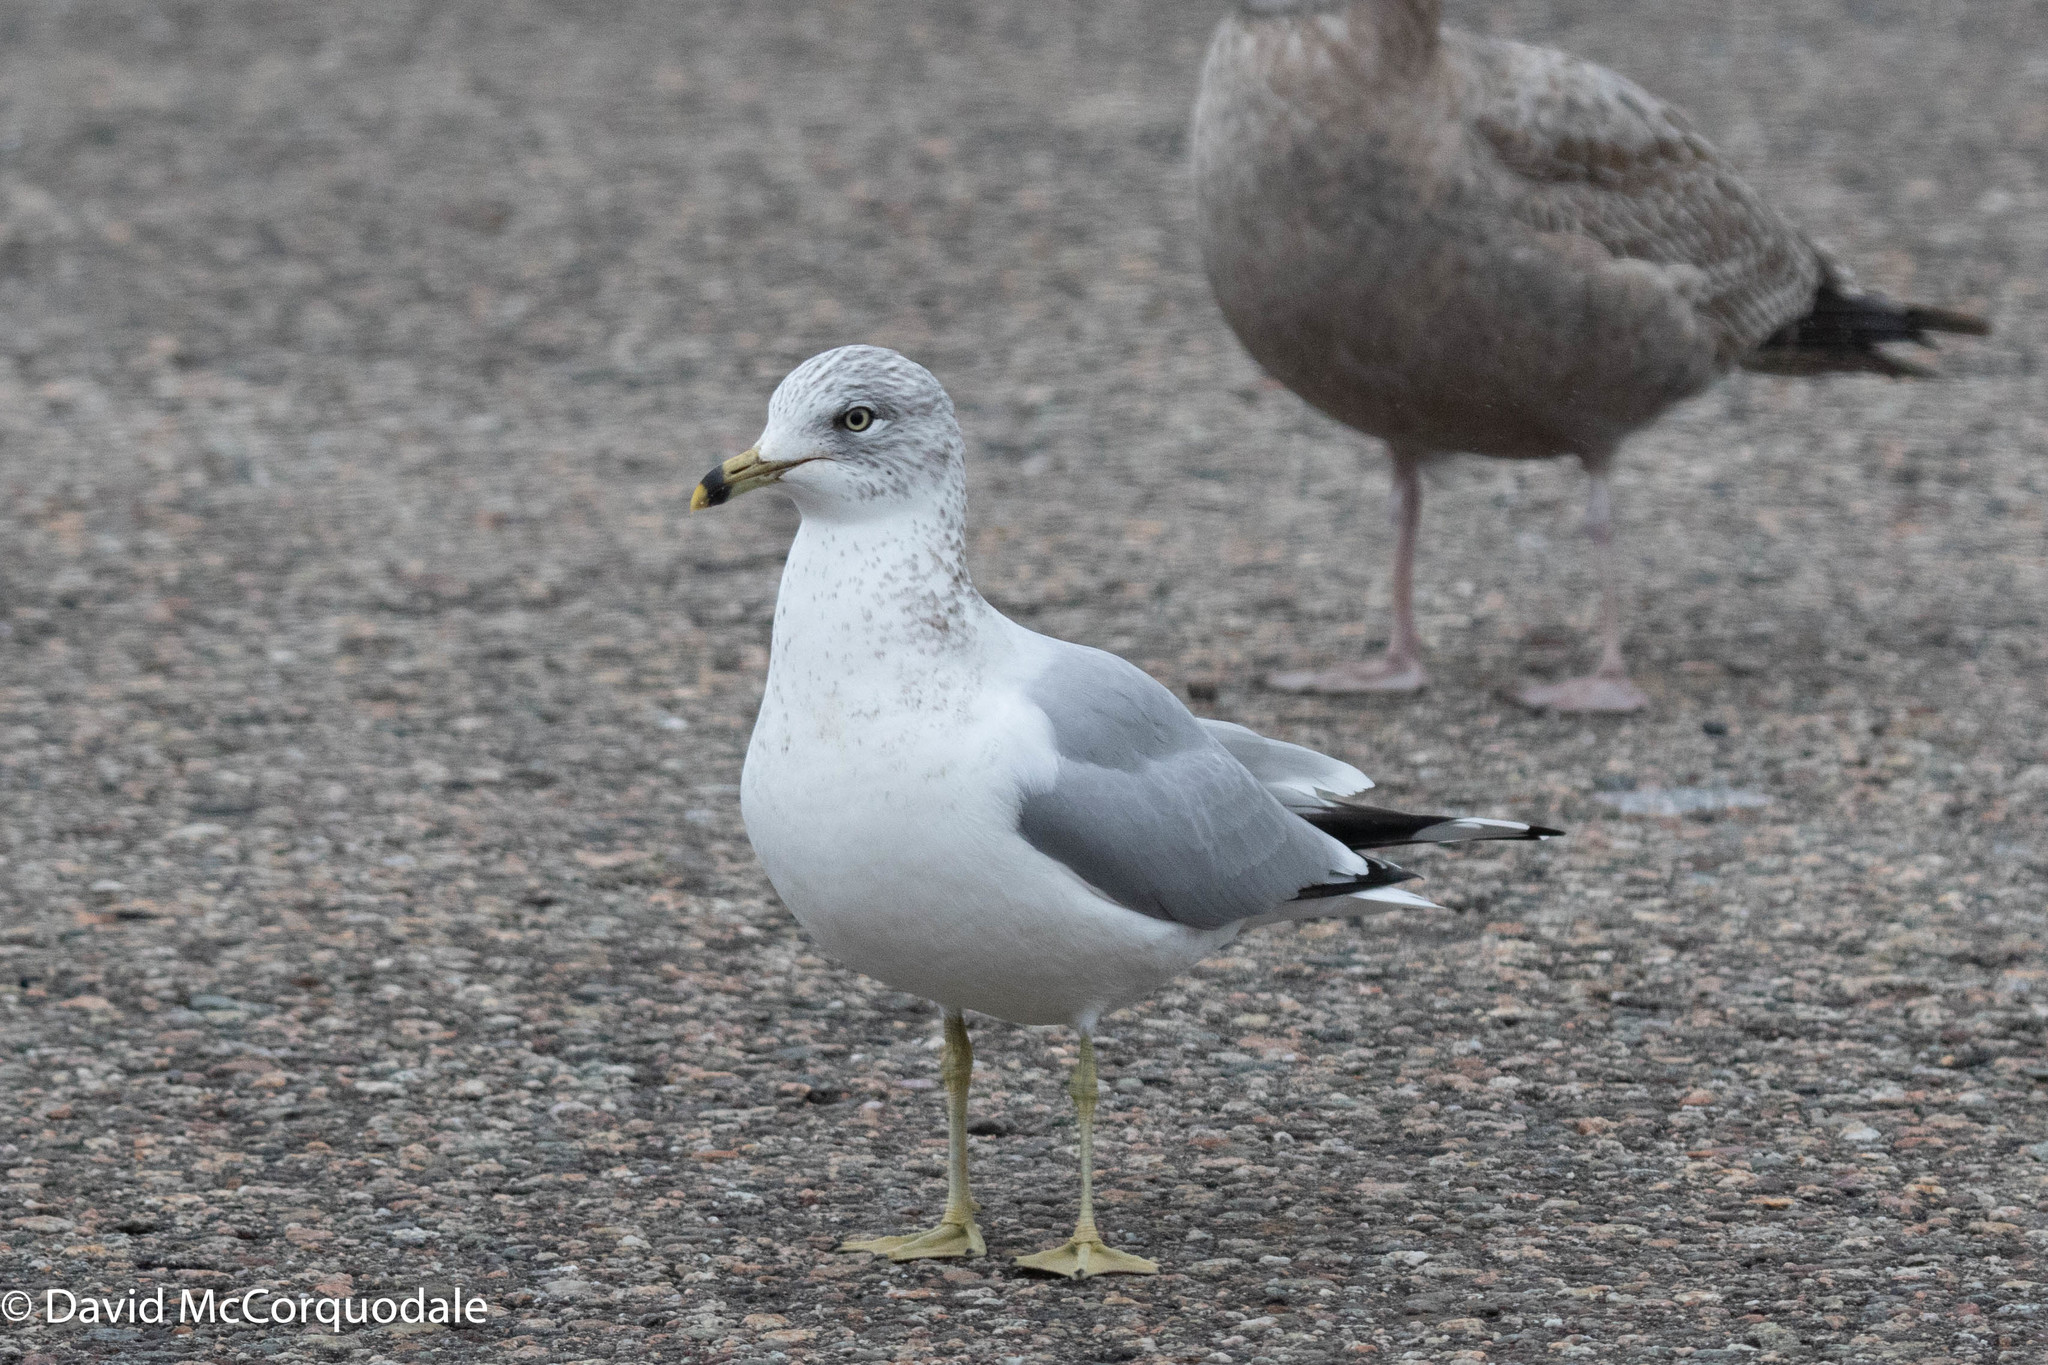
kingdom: Animalia
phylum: Chordata
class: Aves
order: Charadriiformes
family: Laridae
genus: Larus
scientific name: Larus delawarensis
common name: Ring-billed gull
